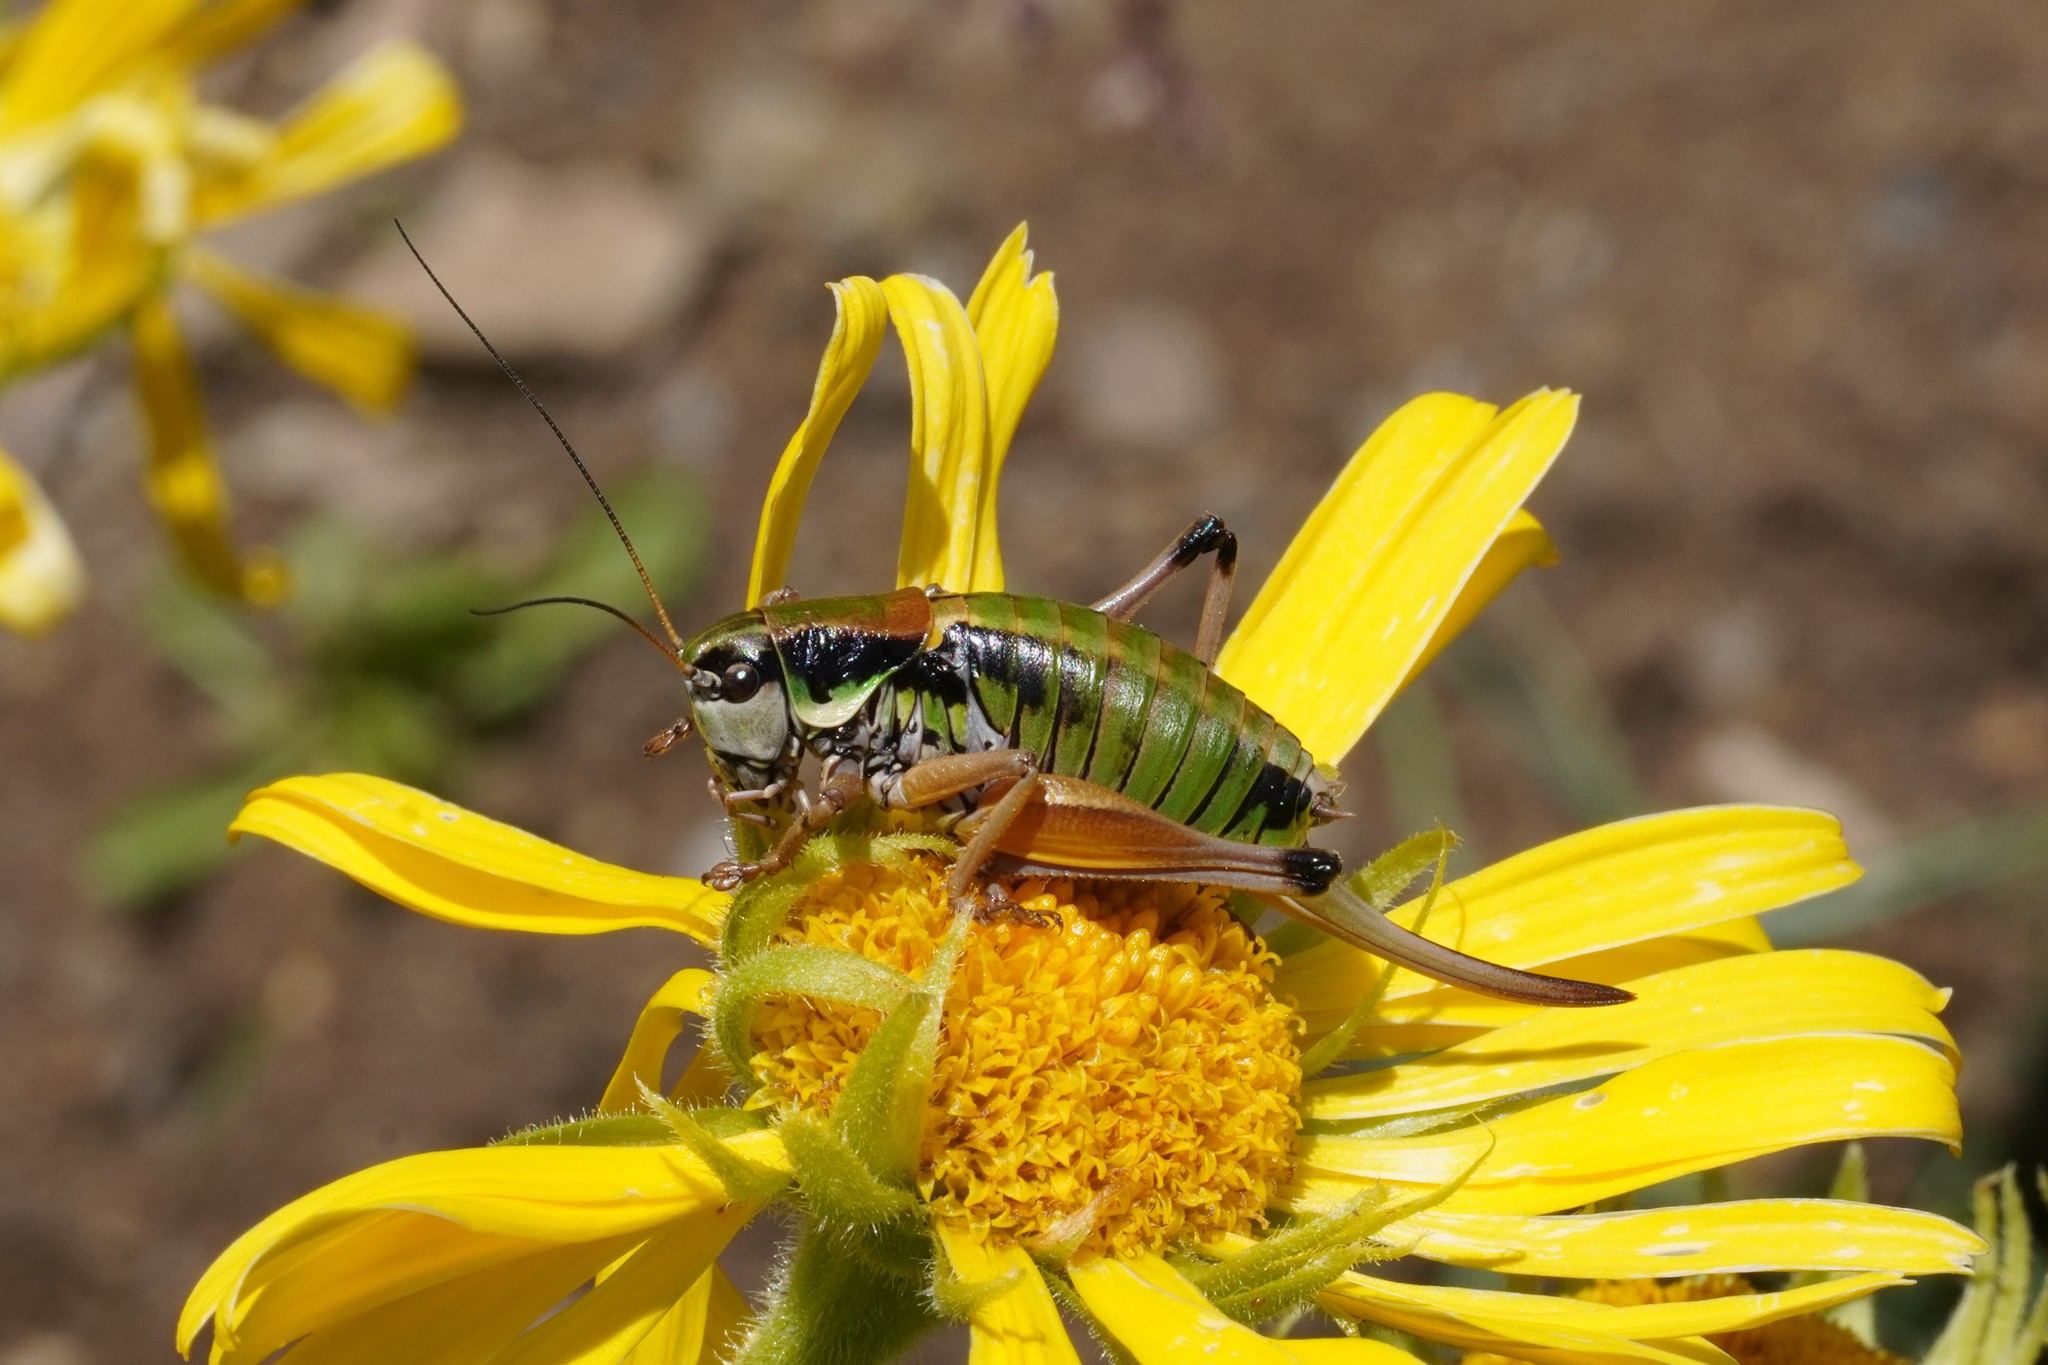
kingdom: Animalia
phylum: Arthropoda
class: Insecta
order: Orthoptera
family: Tettigoniidae
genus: Anonconotus
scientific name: Anonconotus occidentalis
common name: Western alpine bush-cricket
